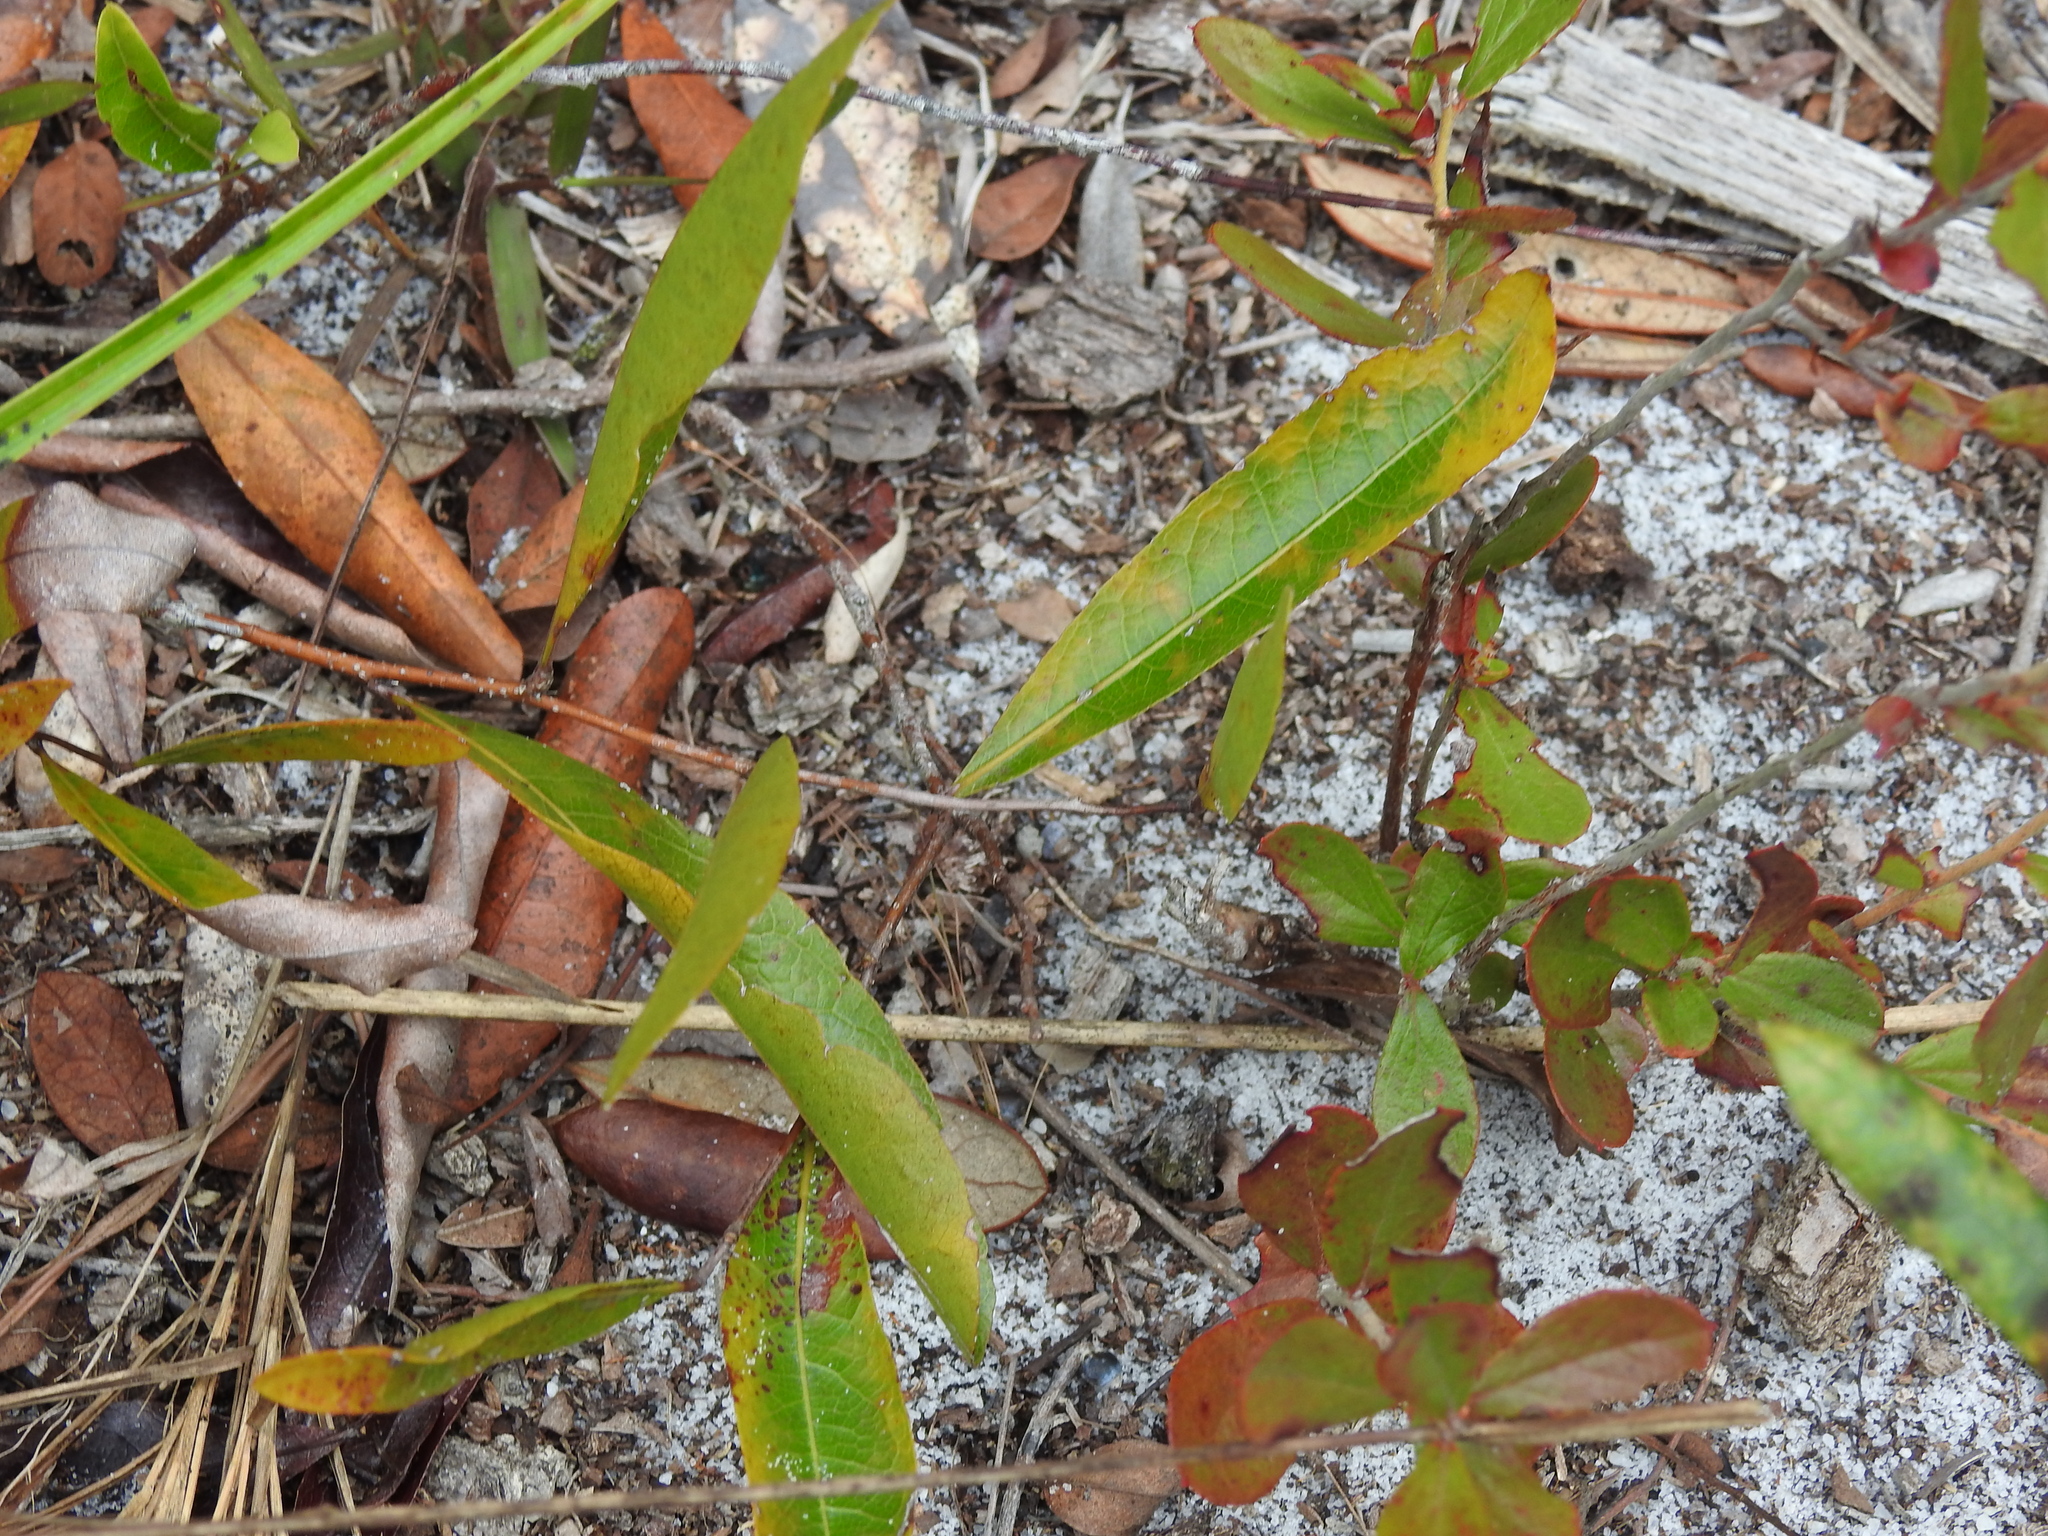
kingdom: Plantae
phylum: Tracheophyta
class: Magnoliopsida
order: Malpighiales
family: Chrysobalanaceae
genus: Geobalanus
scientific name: Geobalanus oblongifolius
